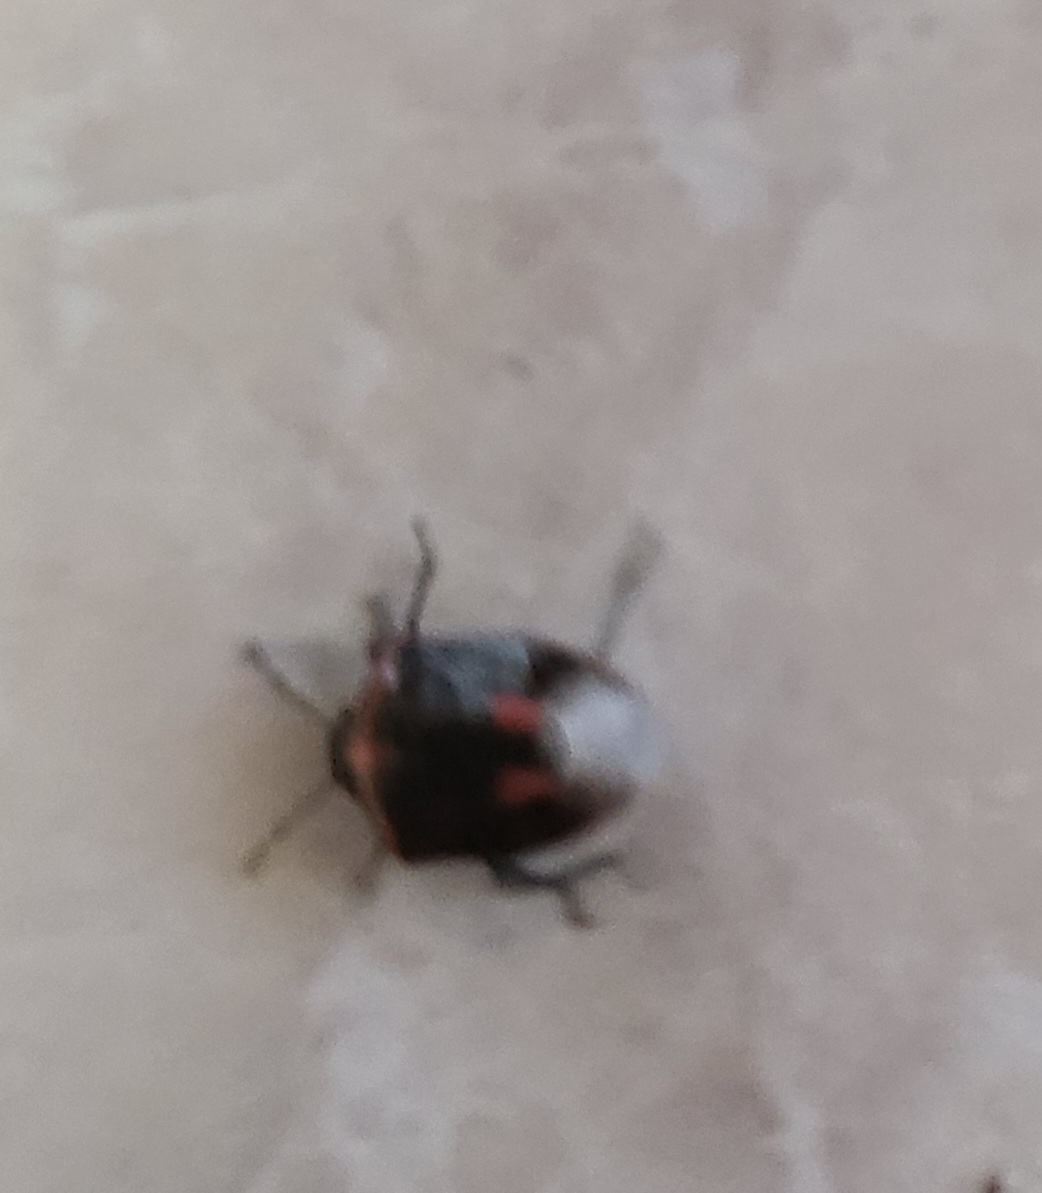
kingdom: Animalia
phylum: Arthropoda
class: Insecta
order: Hemiptera
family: Pentatomidae
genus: Cosmopepla
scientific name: Cosmopepla lintneriana
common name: Twice-stabbed stink bug
